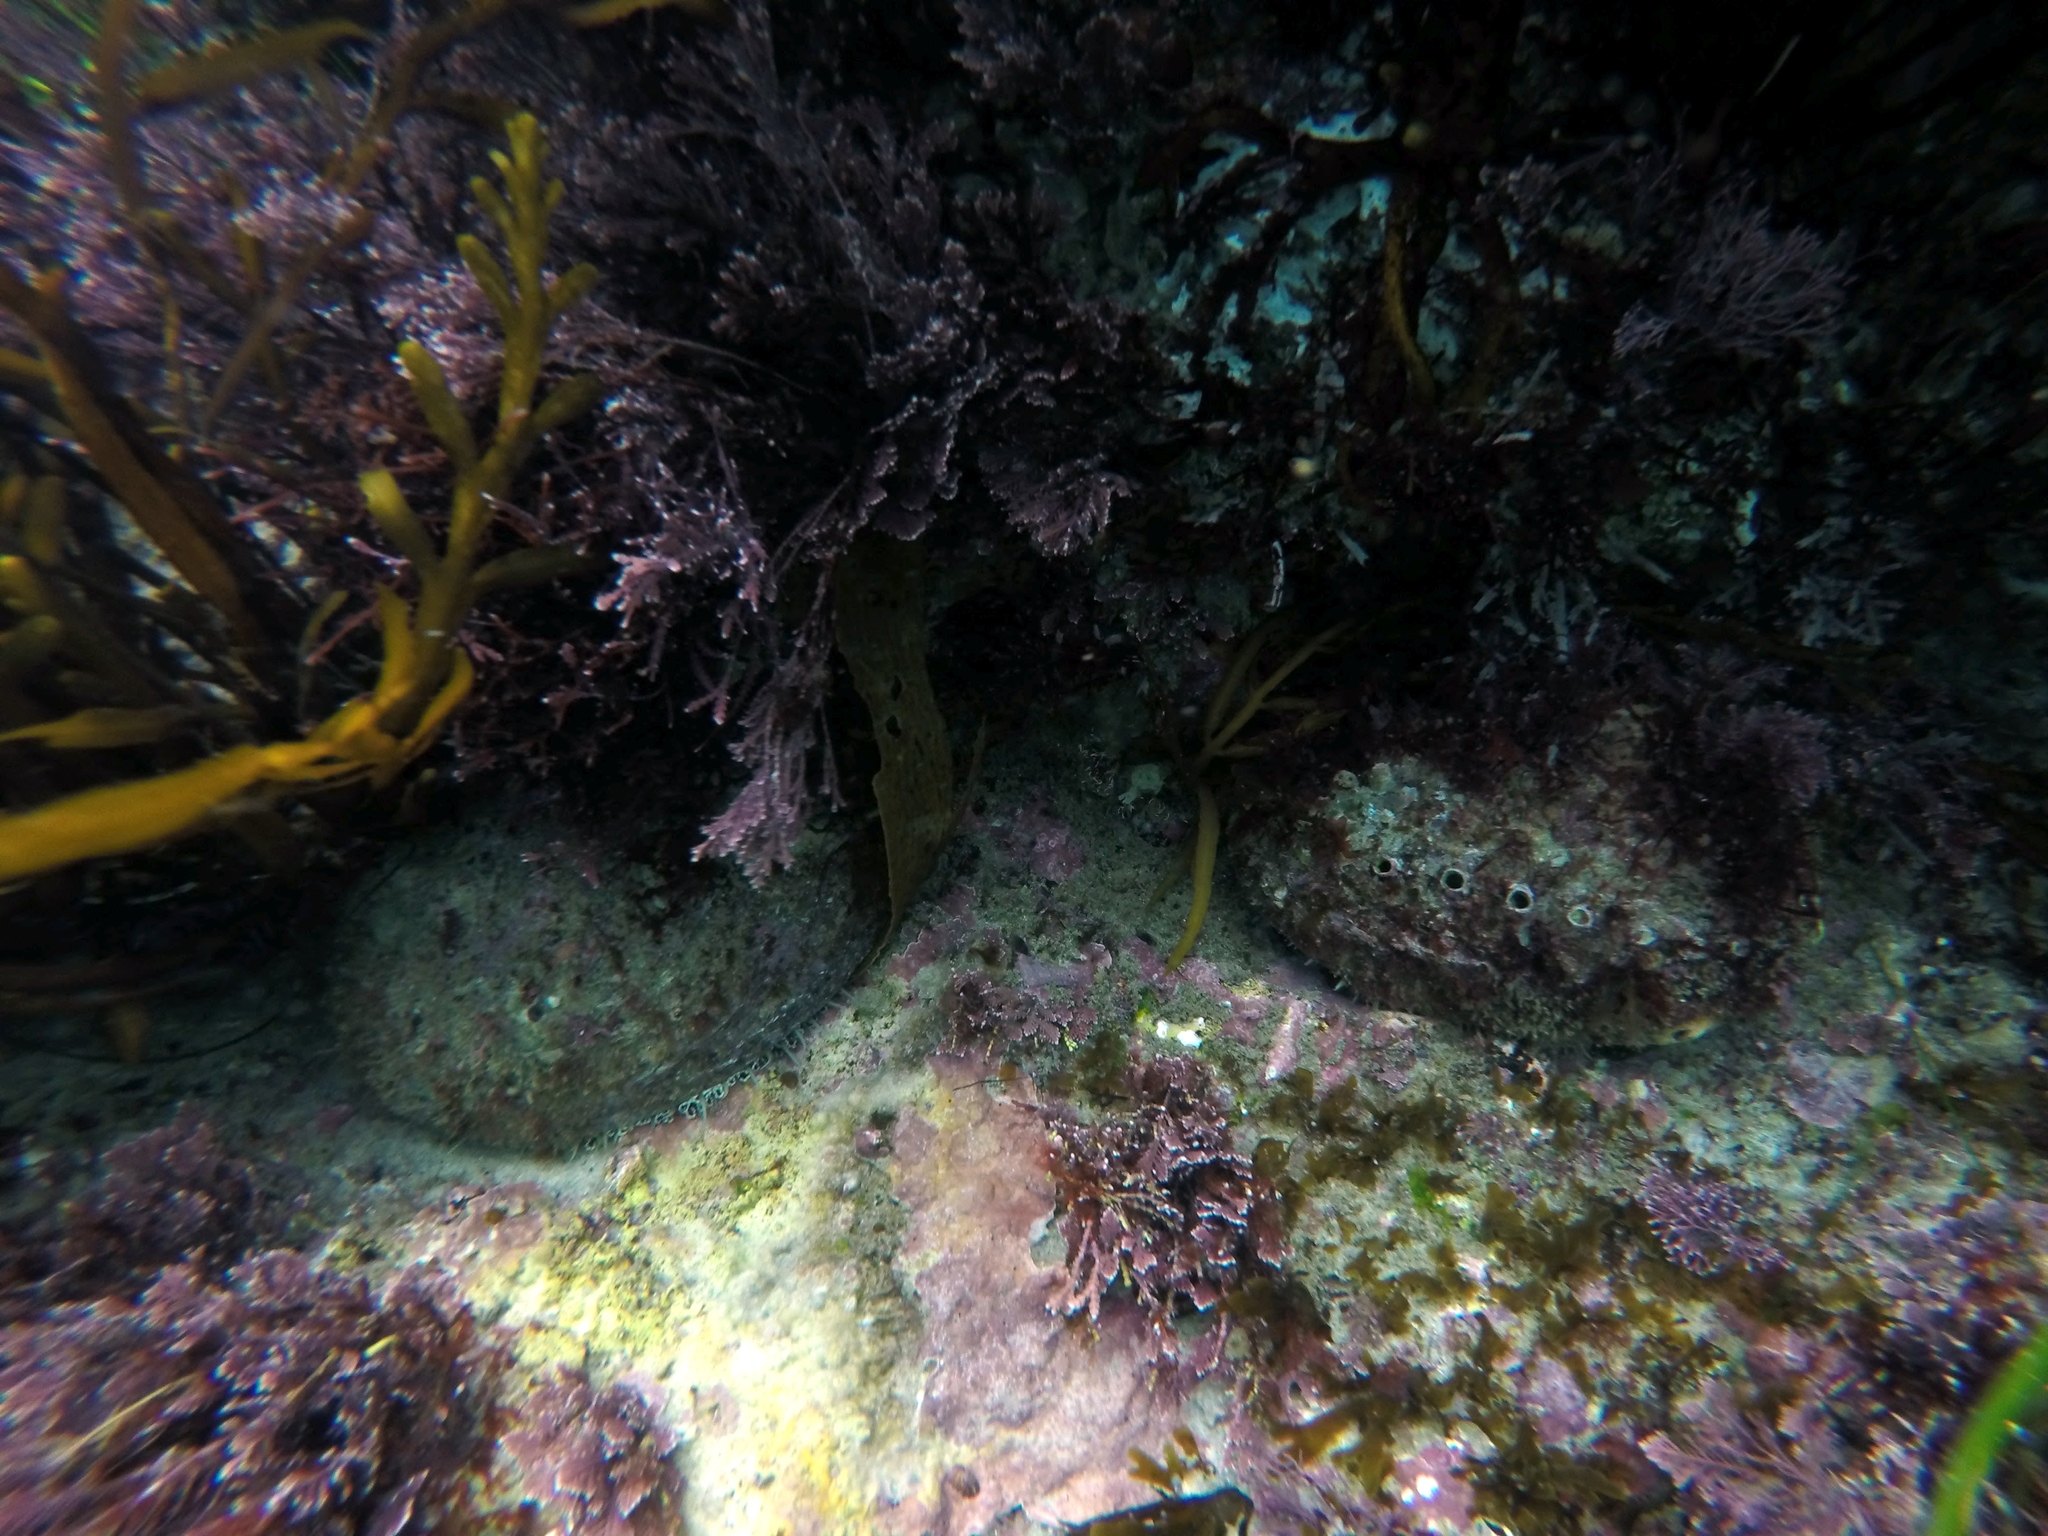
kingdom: Animalia
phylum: Mollusca
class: Gastropoda
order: Lepetellida
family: Haliotidae
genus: Haliotis
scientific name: Haliotis fulgens
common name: Green abalone
